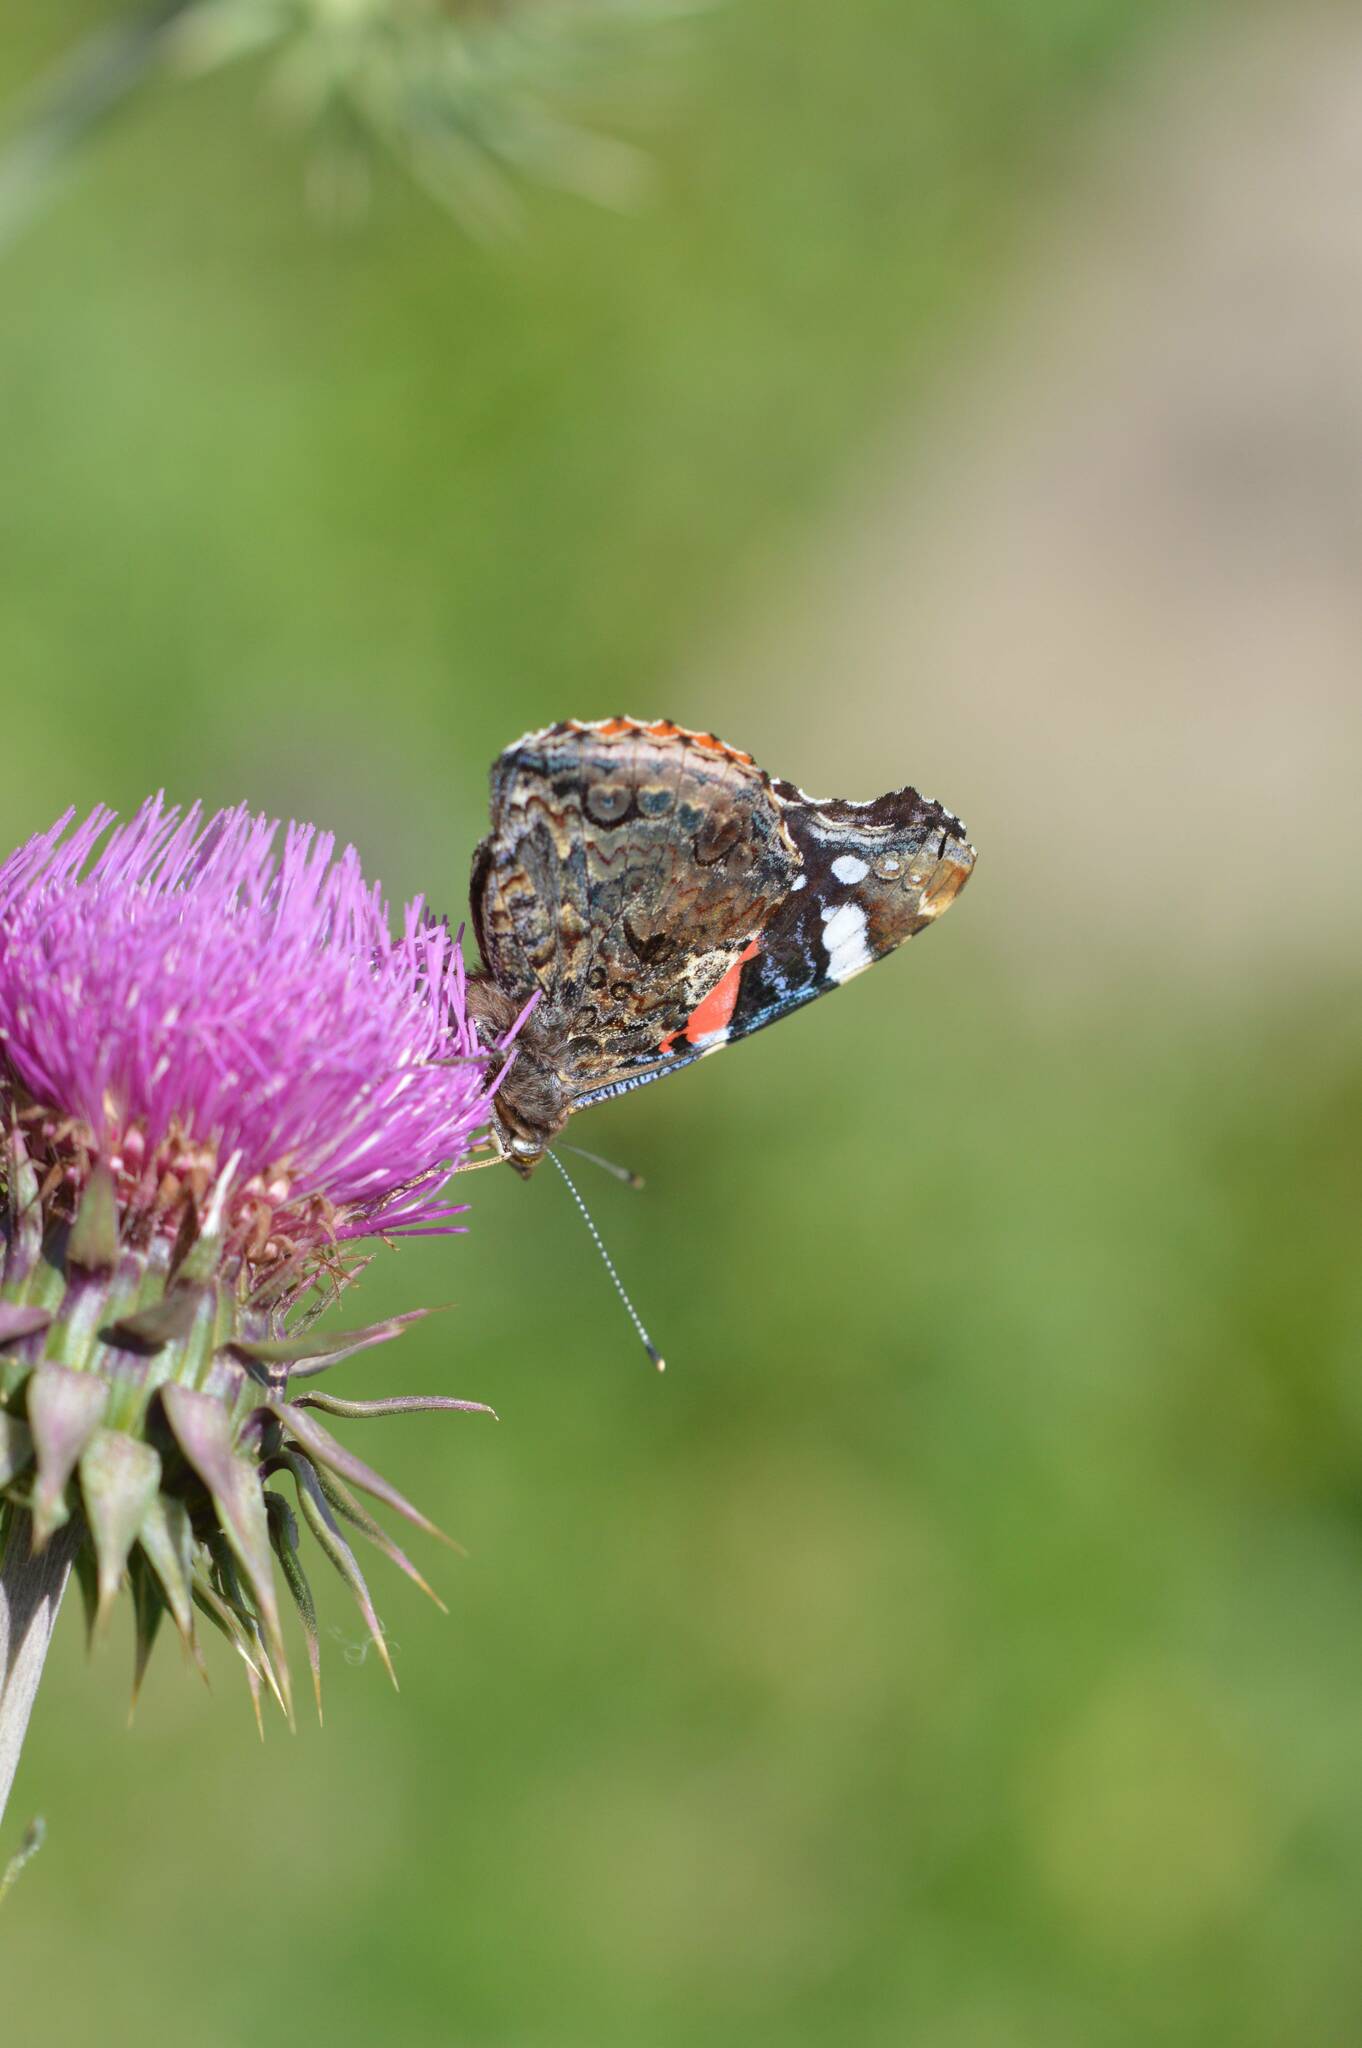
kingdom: Animalia
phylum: Arthropoda
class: Insecta
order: Lepidoptera
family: Nymphalidae
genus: Vanessa
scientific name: Vanessa atalanta
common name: Red admiral
